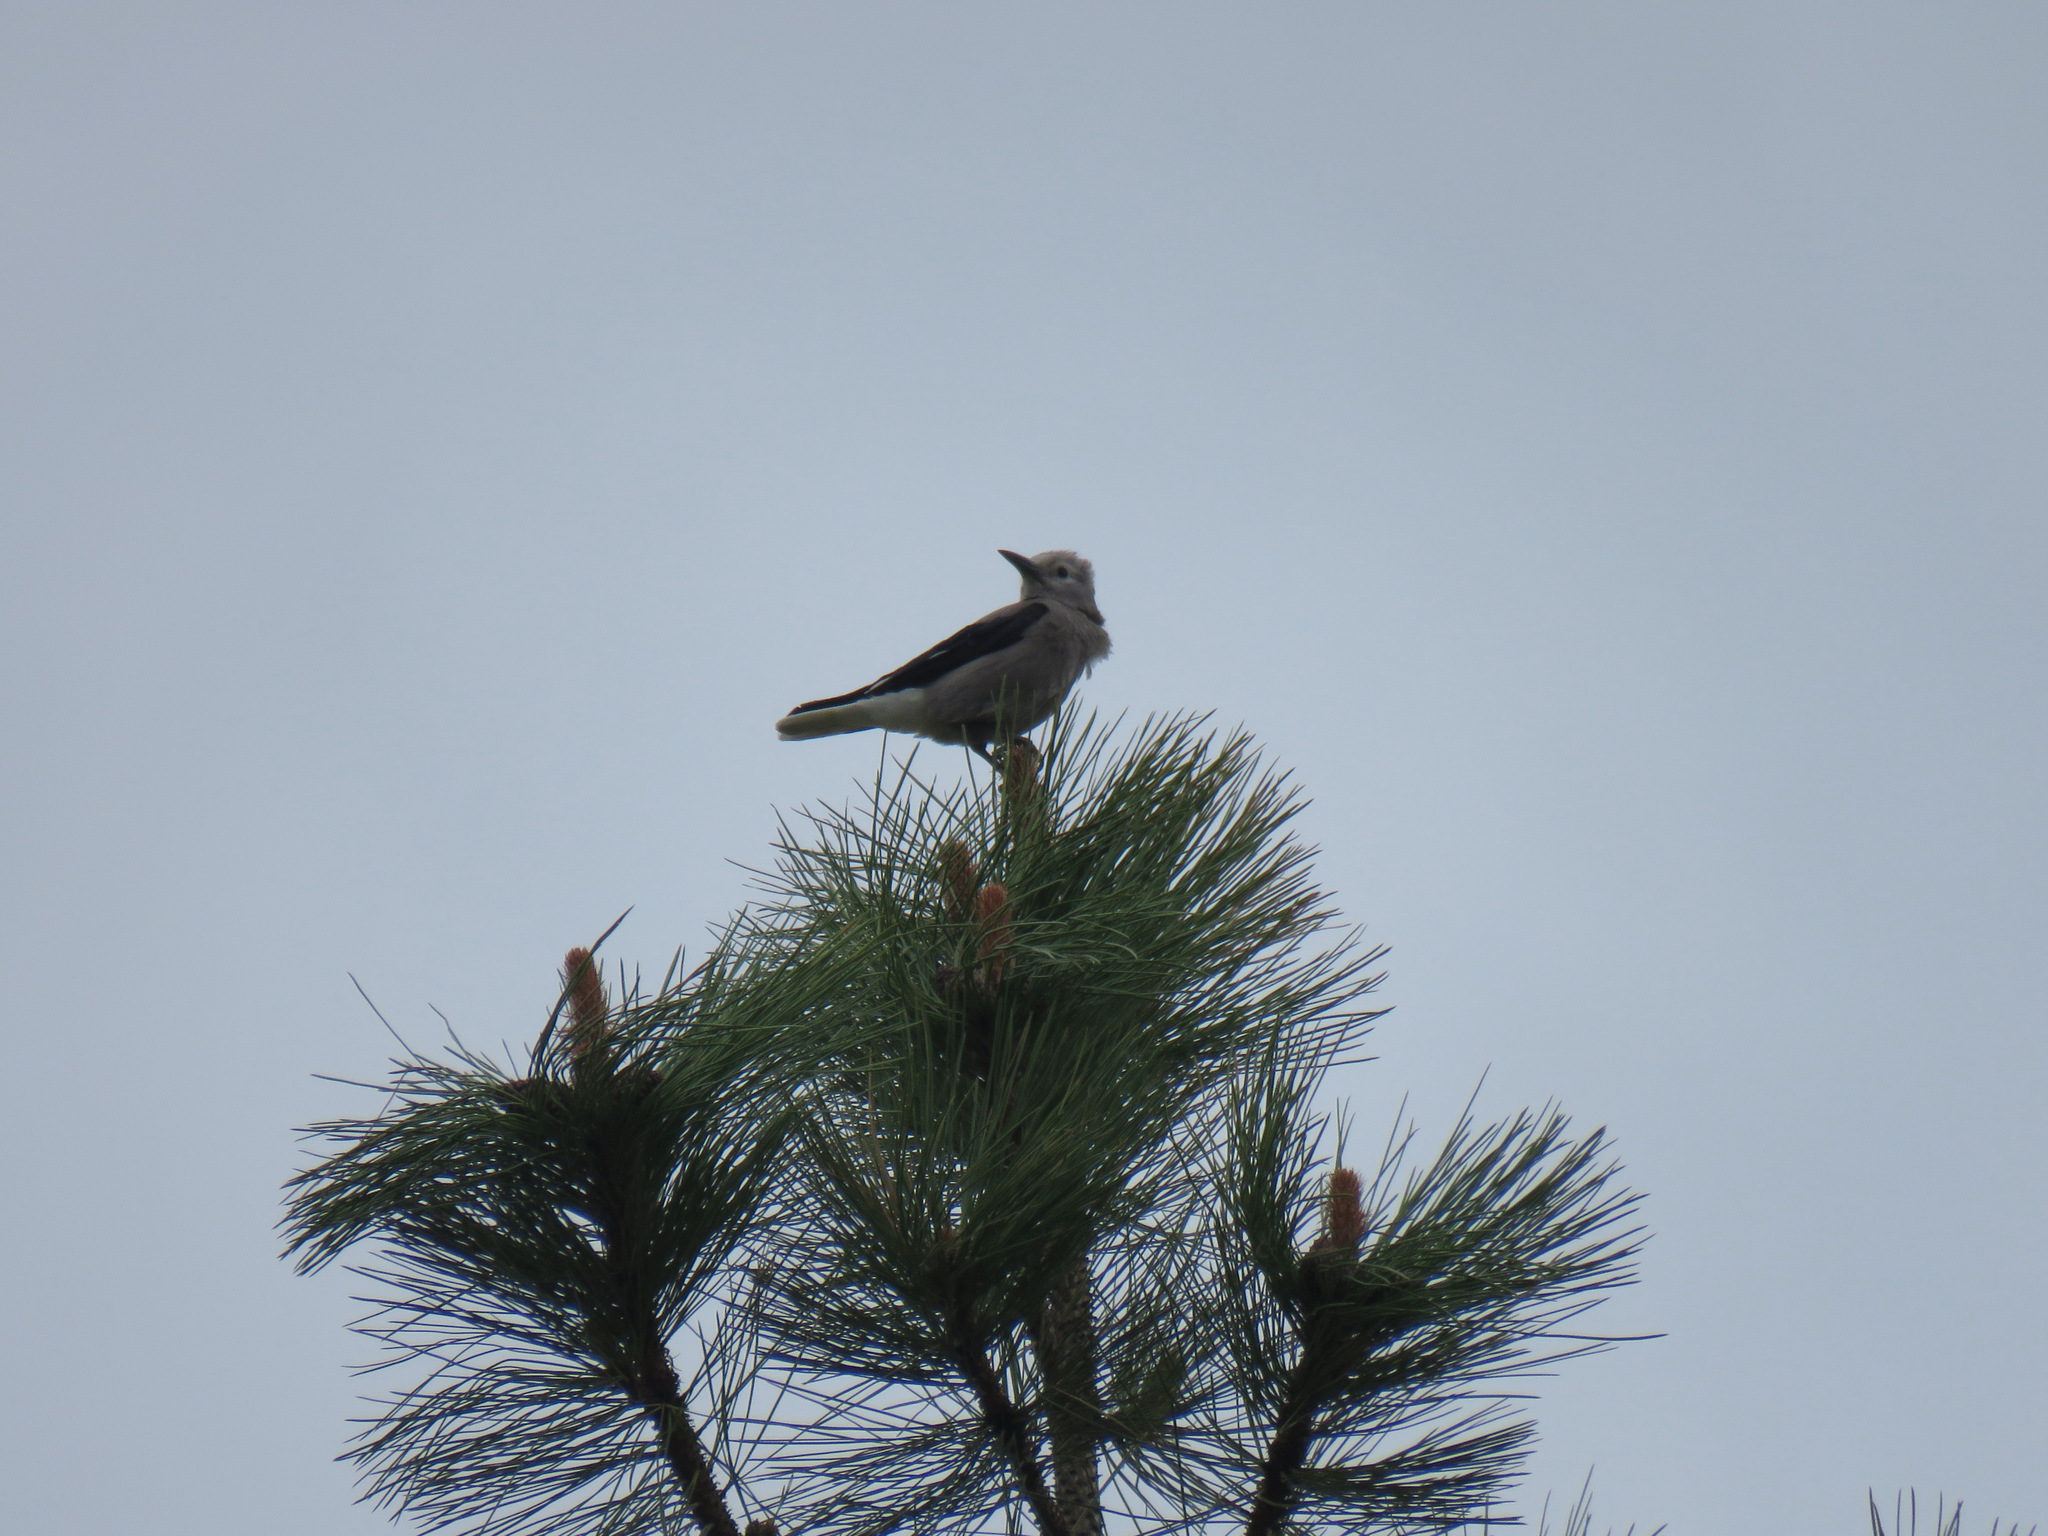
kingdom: Animalia
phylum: Chordata
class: Aves
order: Passeriformes
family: Corvidae
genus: Nucifraga
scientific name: Nucifraga columbiana
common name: Clark's nutcracker
